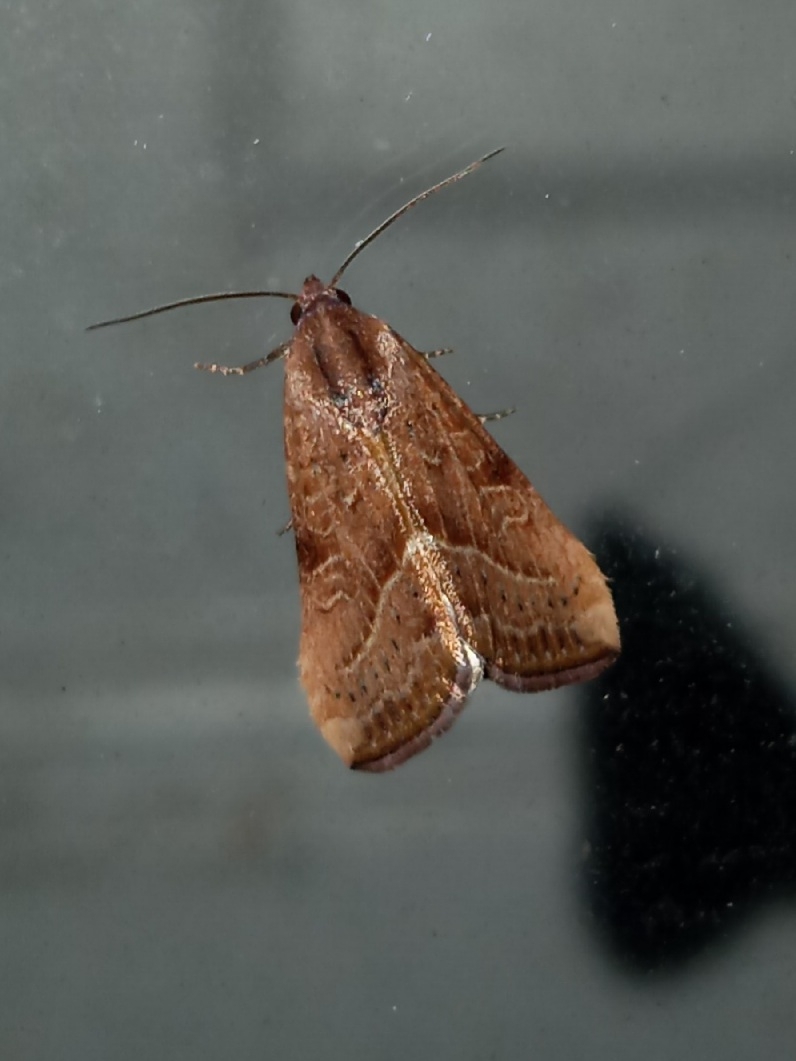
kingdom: Animalia
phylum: Arthropoda
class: Insecta
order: Lepidoptera
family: Noctuidae
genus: Galgula
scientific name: Galgula partita
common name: Wedgeling
